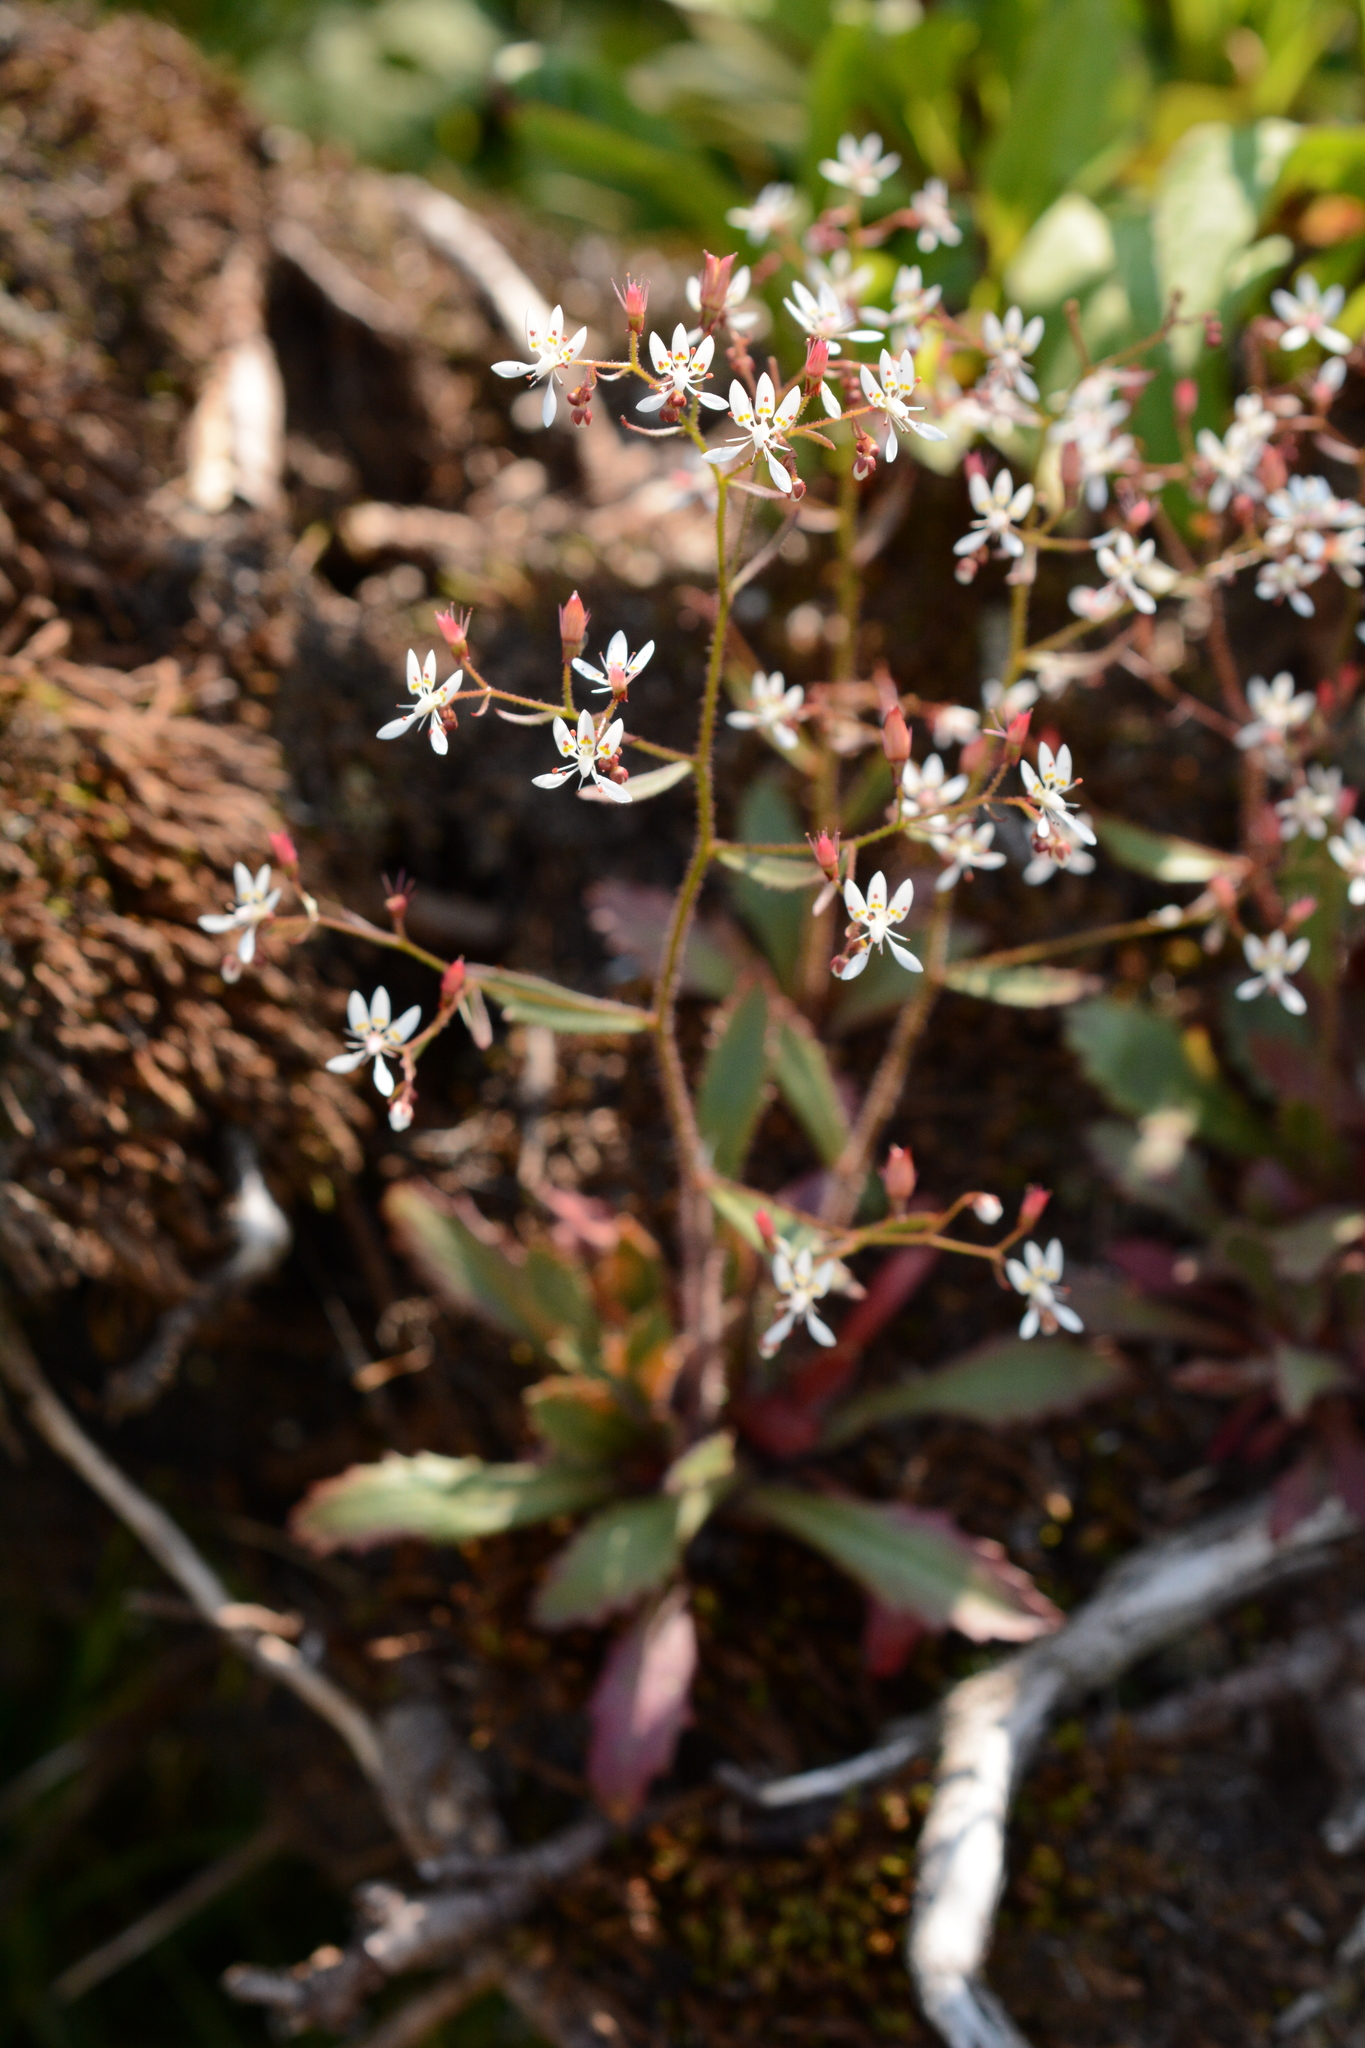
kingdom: Plantae
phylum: Tracheophyta
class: Magnoliopsida
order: Saxifragales
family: Saxifragaceae
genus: Micranthes
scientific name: Micranthes petiolaris
